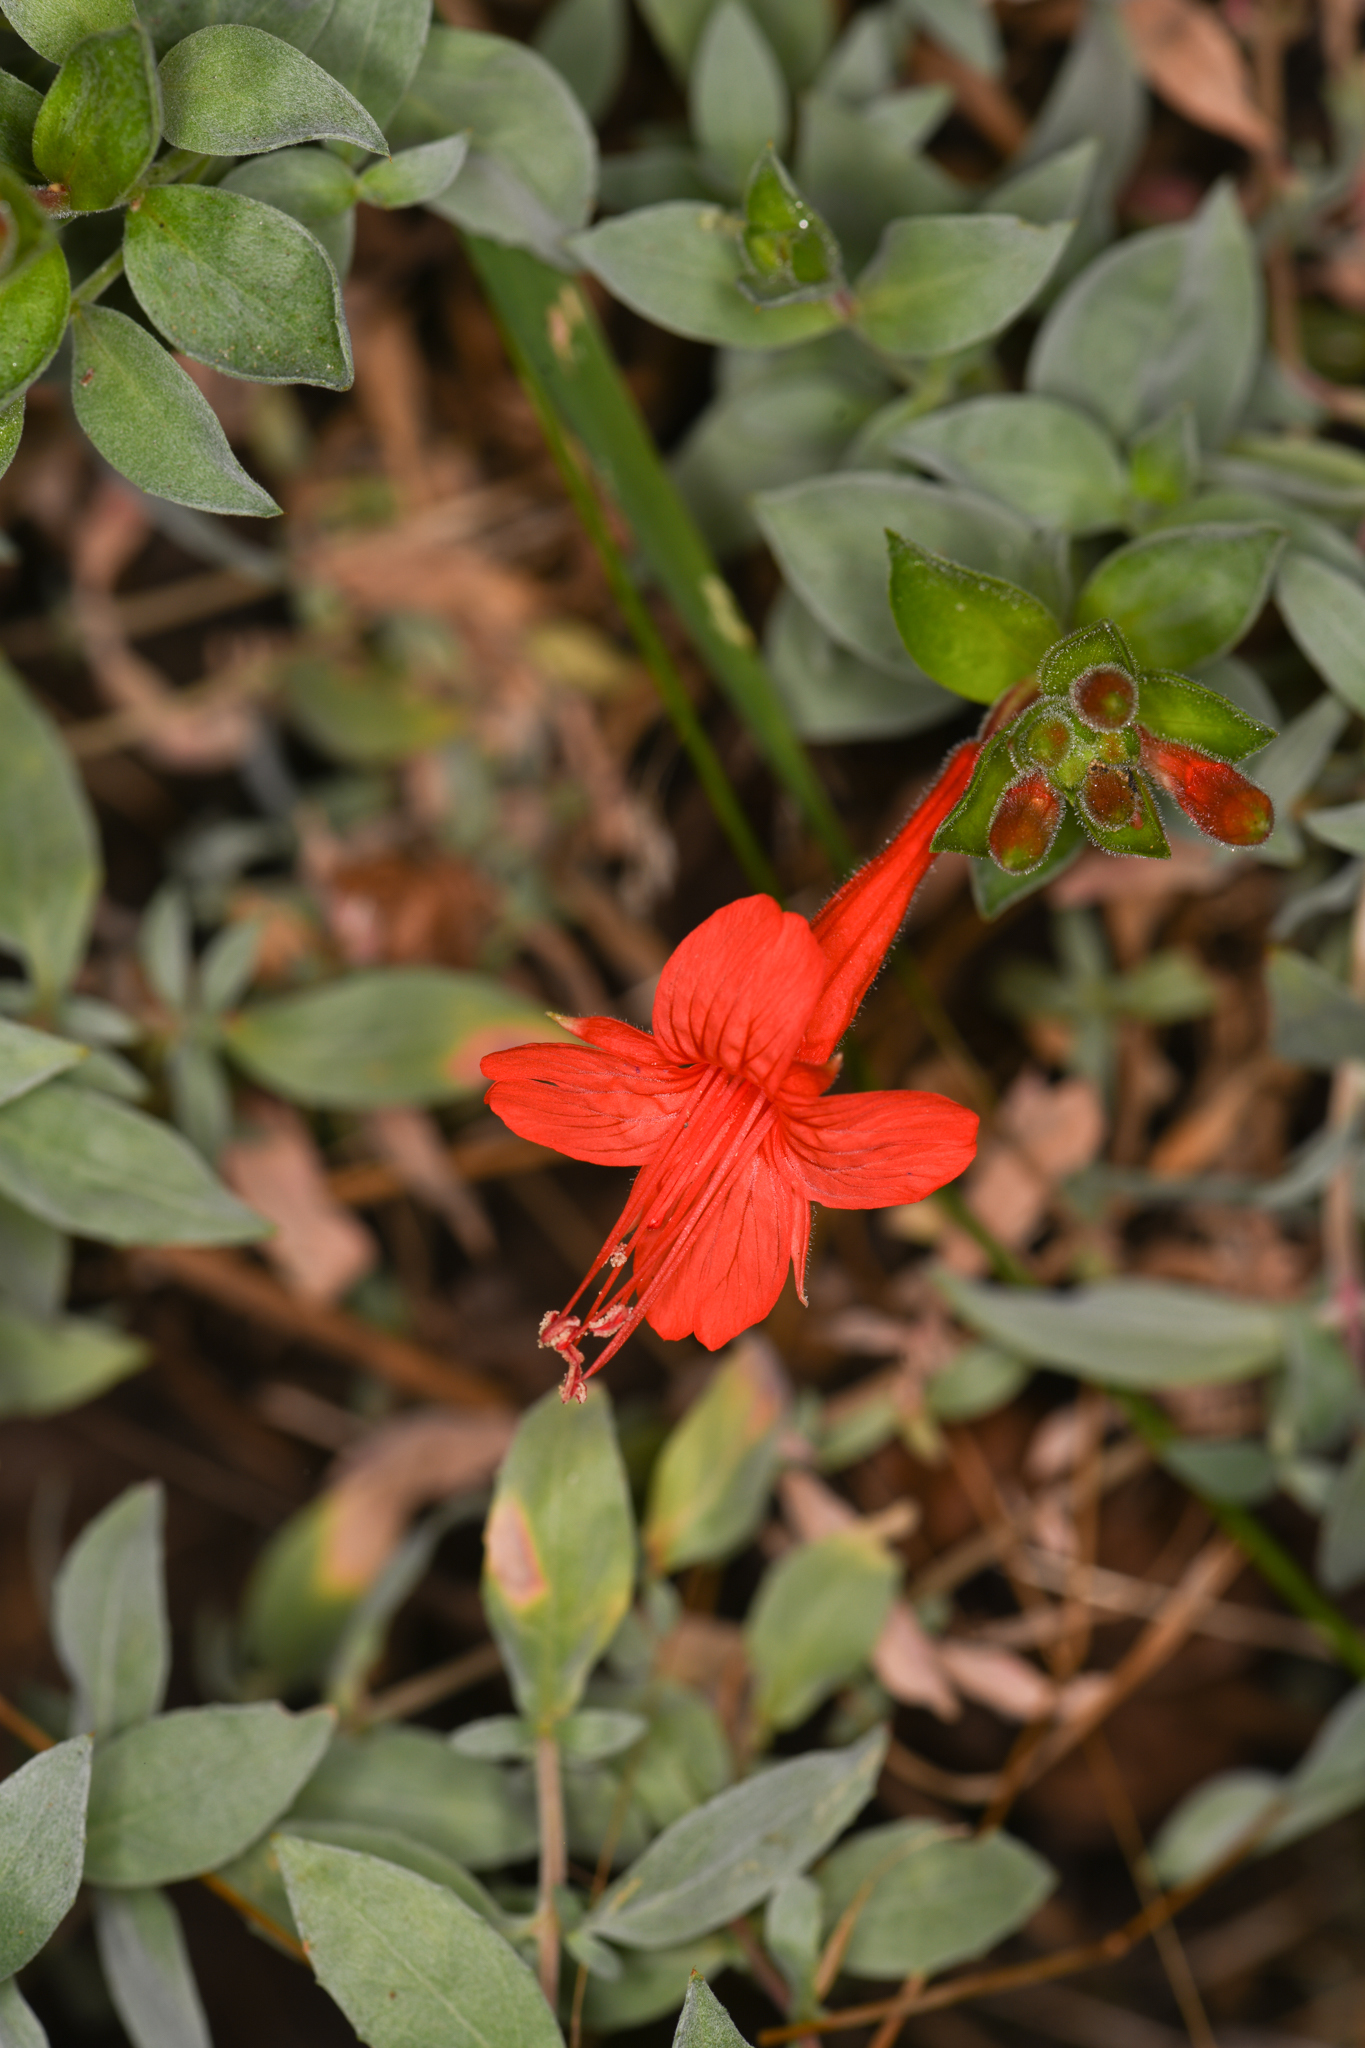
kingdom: Plantae
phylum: Tracheophyta
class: Magnoliopsida
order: Myrtales
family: Onagraceae
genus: Epilobium
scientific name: Epilobium septentrionale
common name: Humboldt county-fuchsia
